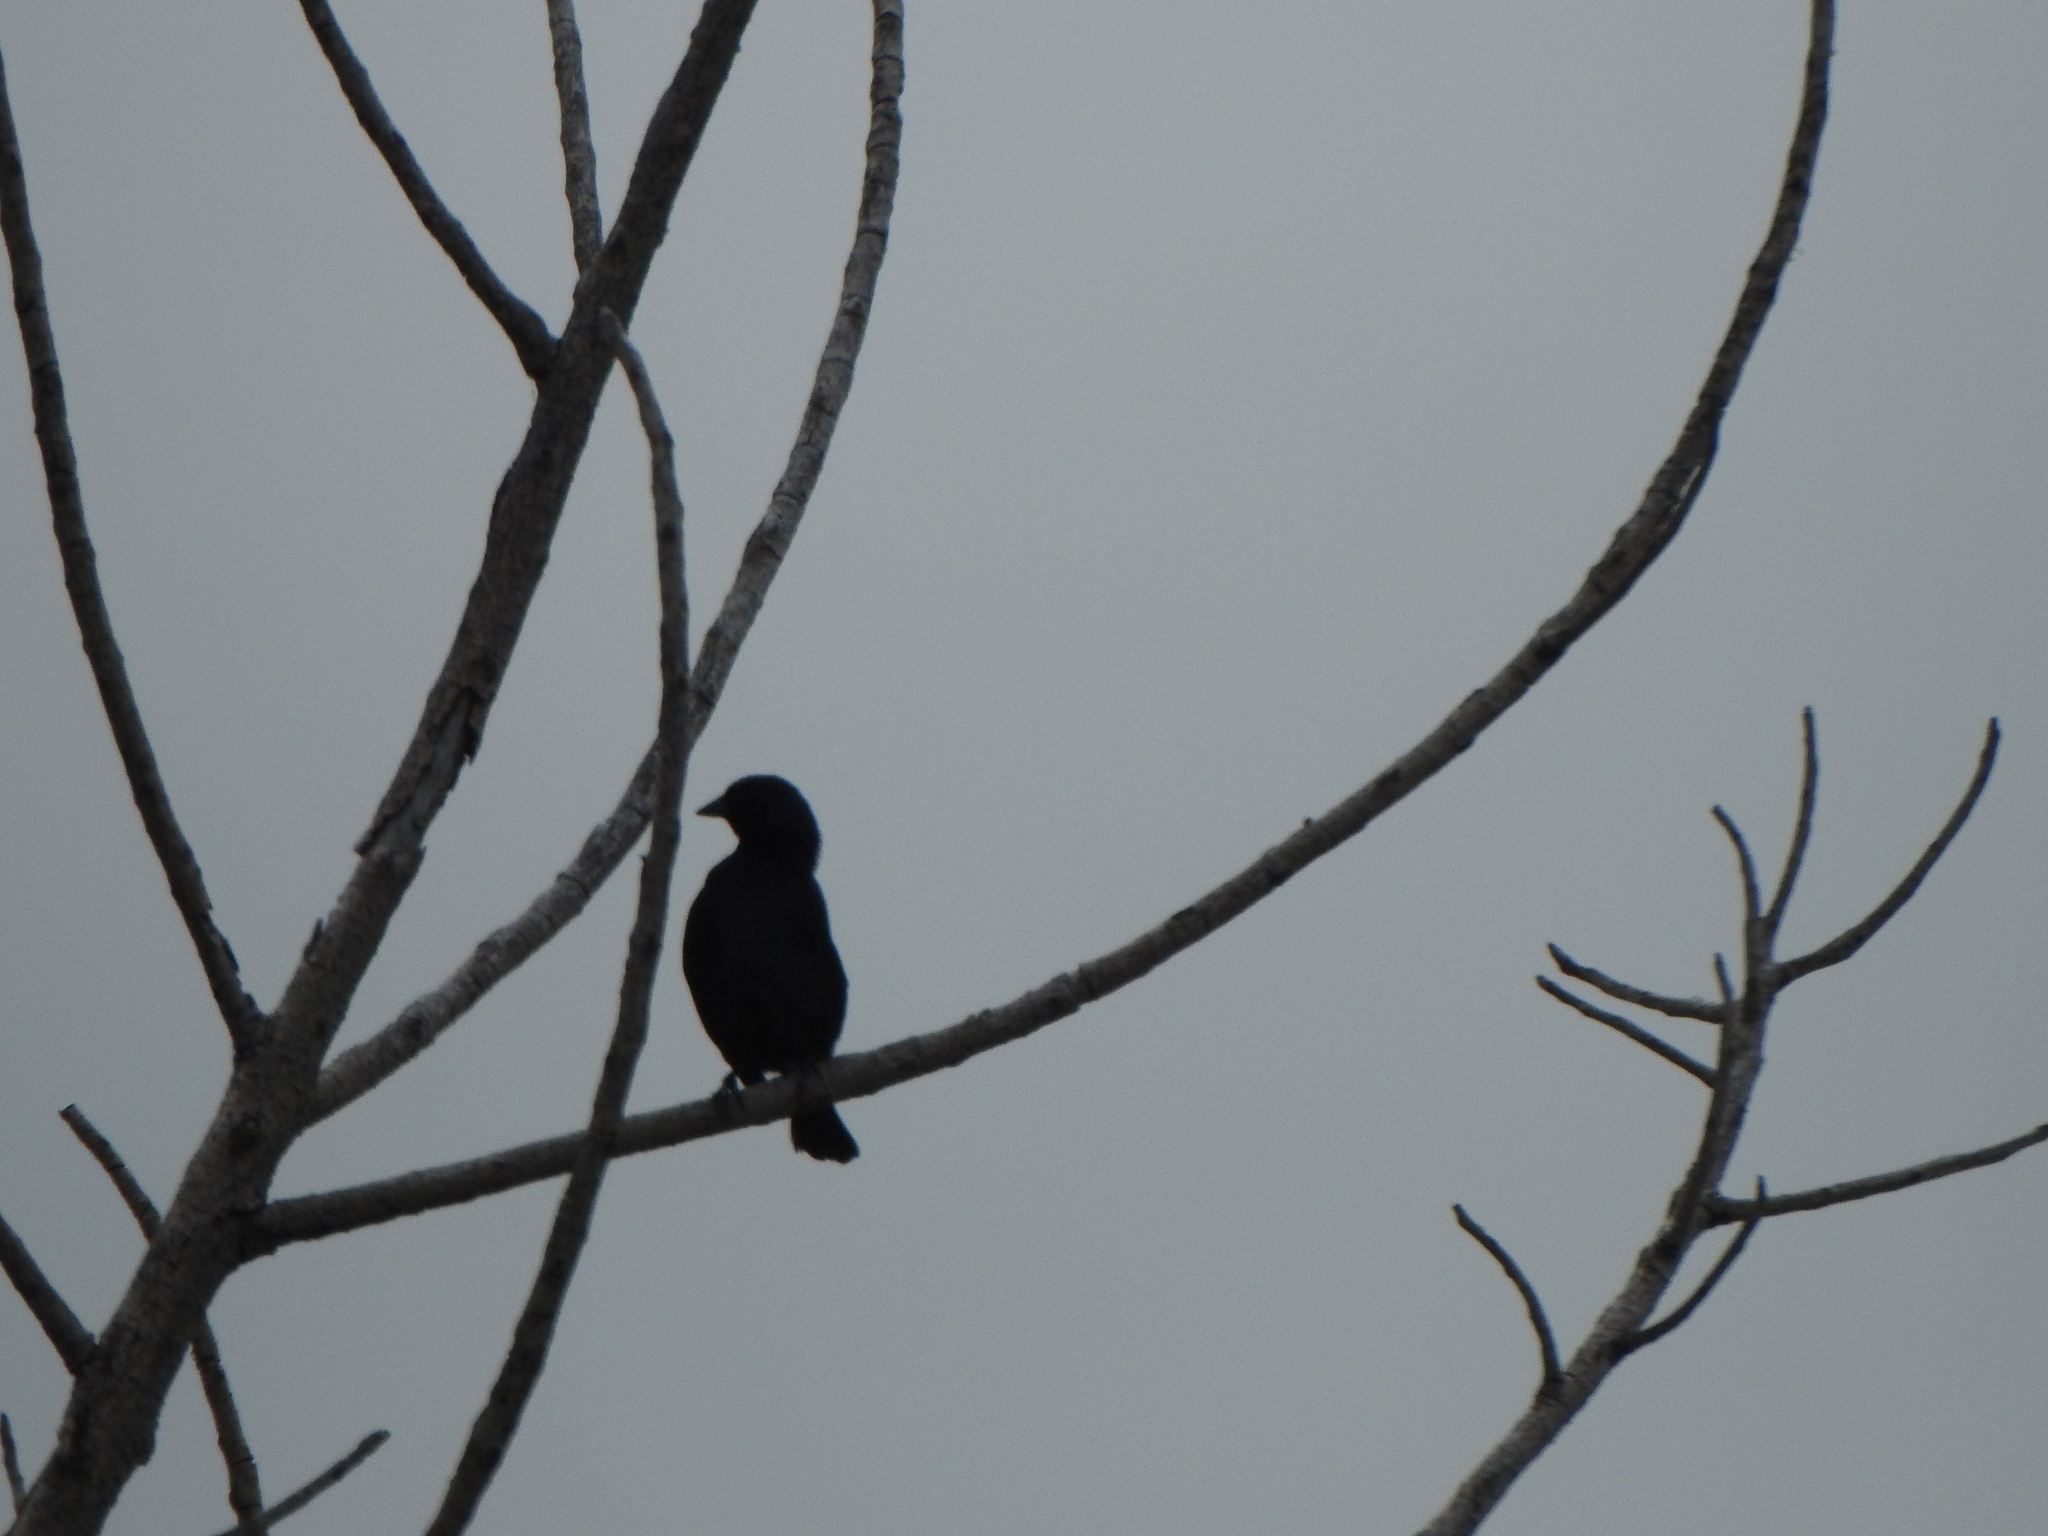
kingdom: Animalia
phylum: Chordata
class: Aves
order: Passeriformes
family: Sturnidae
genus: Sturnus
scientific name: Sturnus vulgaris
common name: Common starling
